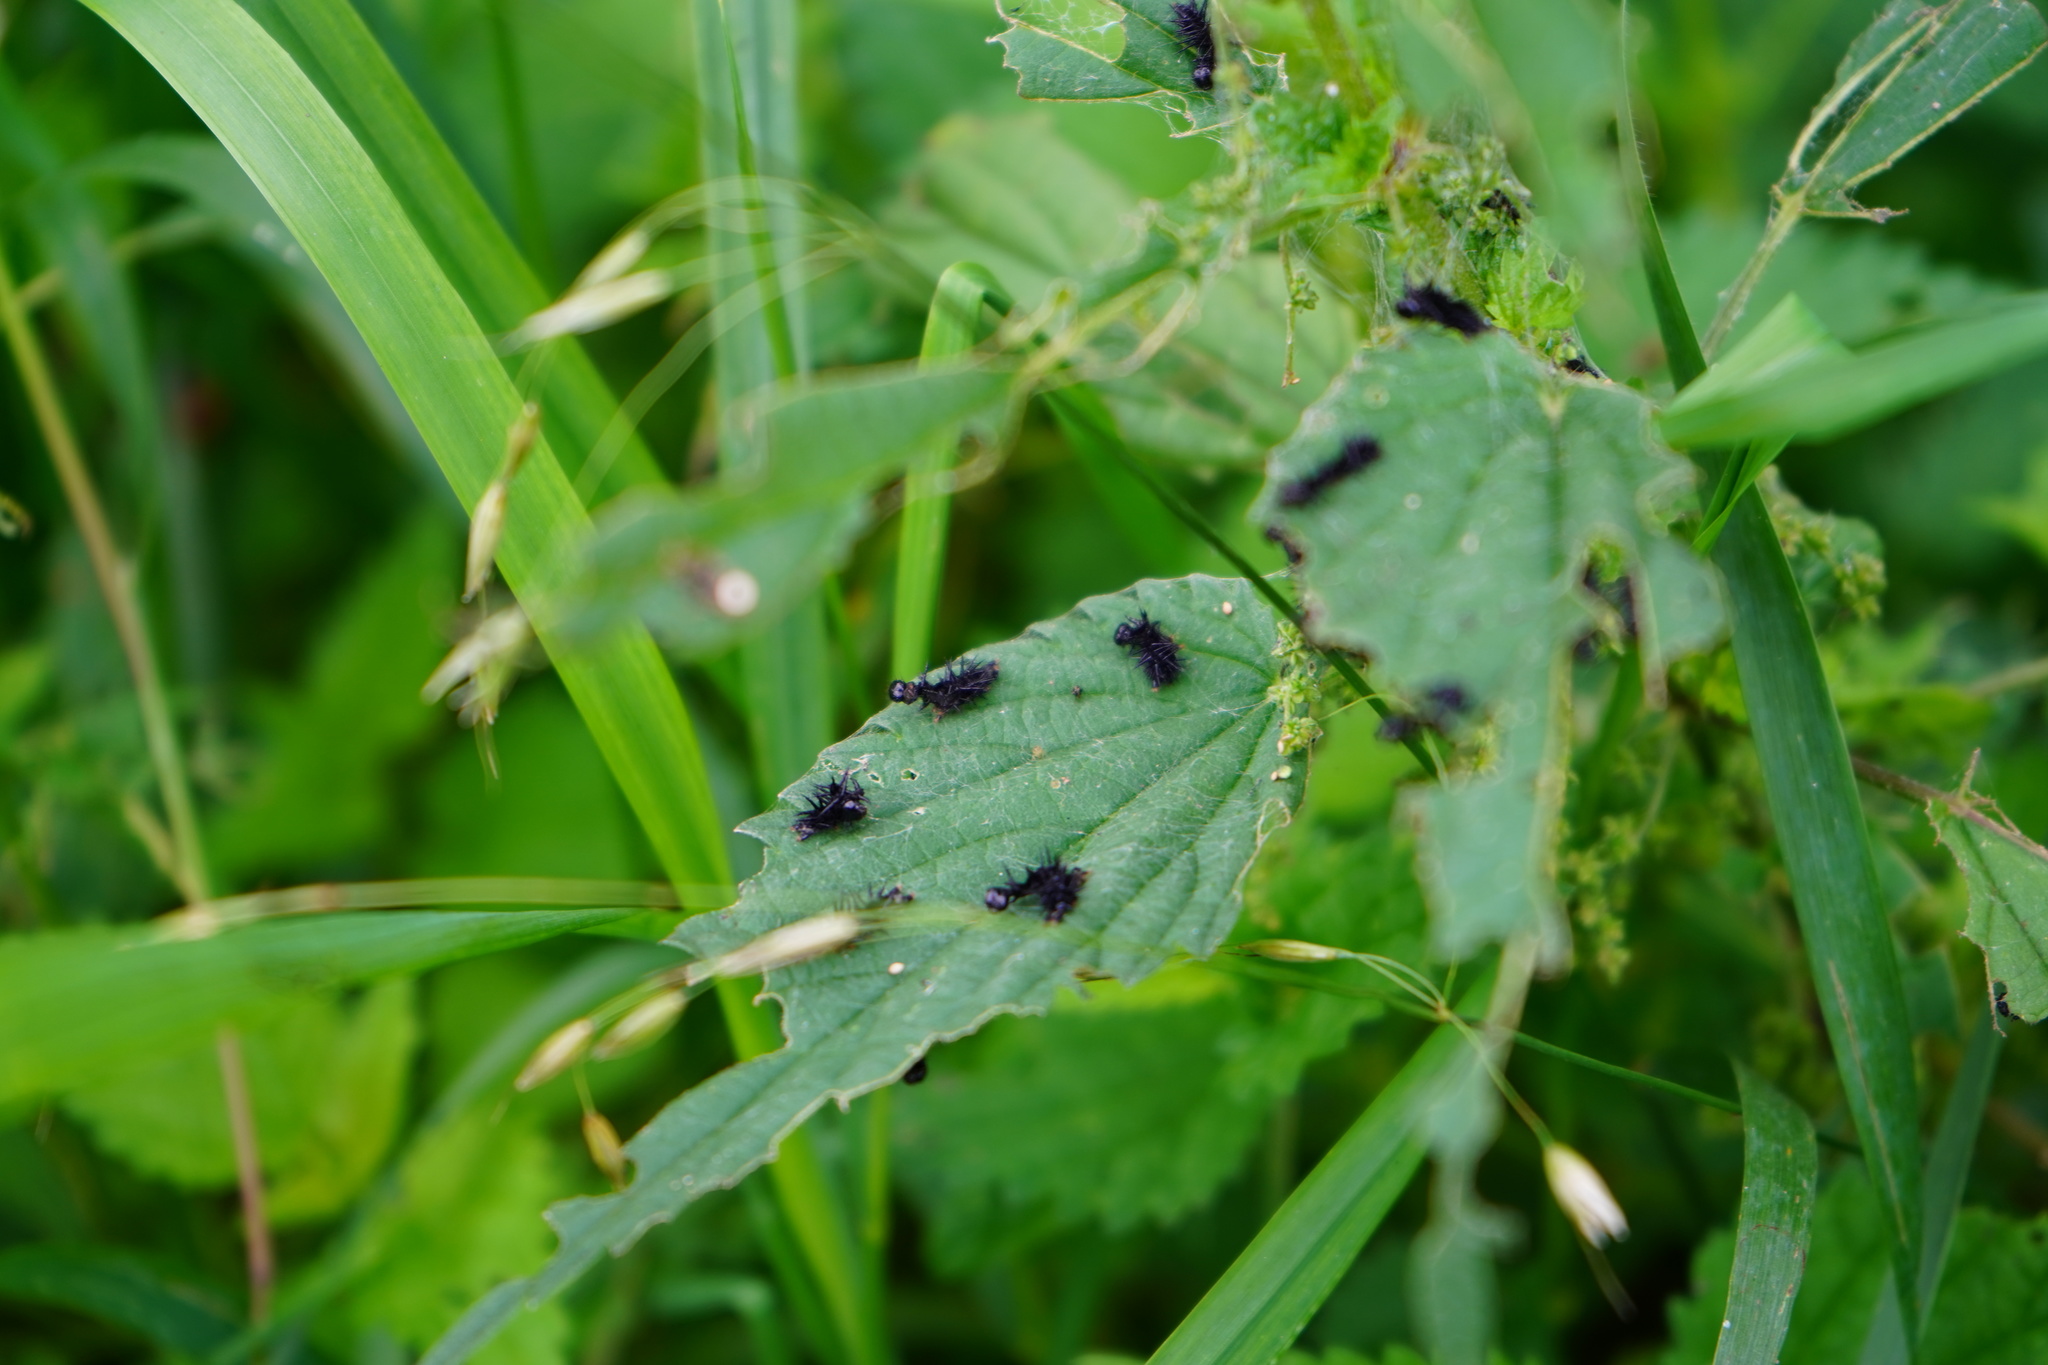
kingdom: Animalia
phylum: Arthropoda
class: Insecta
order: Lepidoptera
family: Nymphalidae
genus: Aglais
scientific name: Aglais io
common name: Peacock
